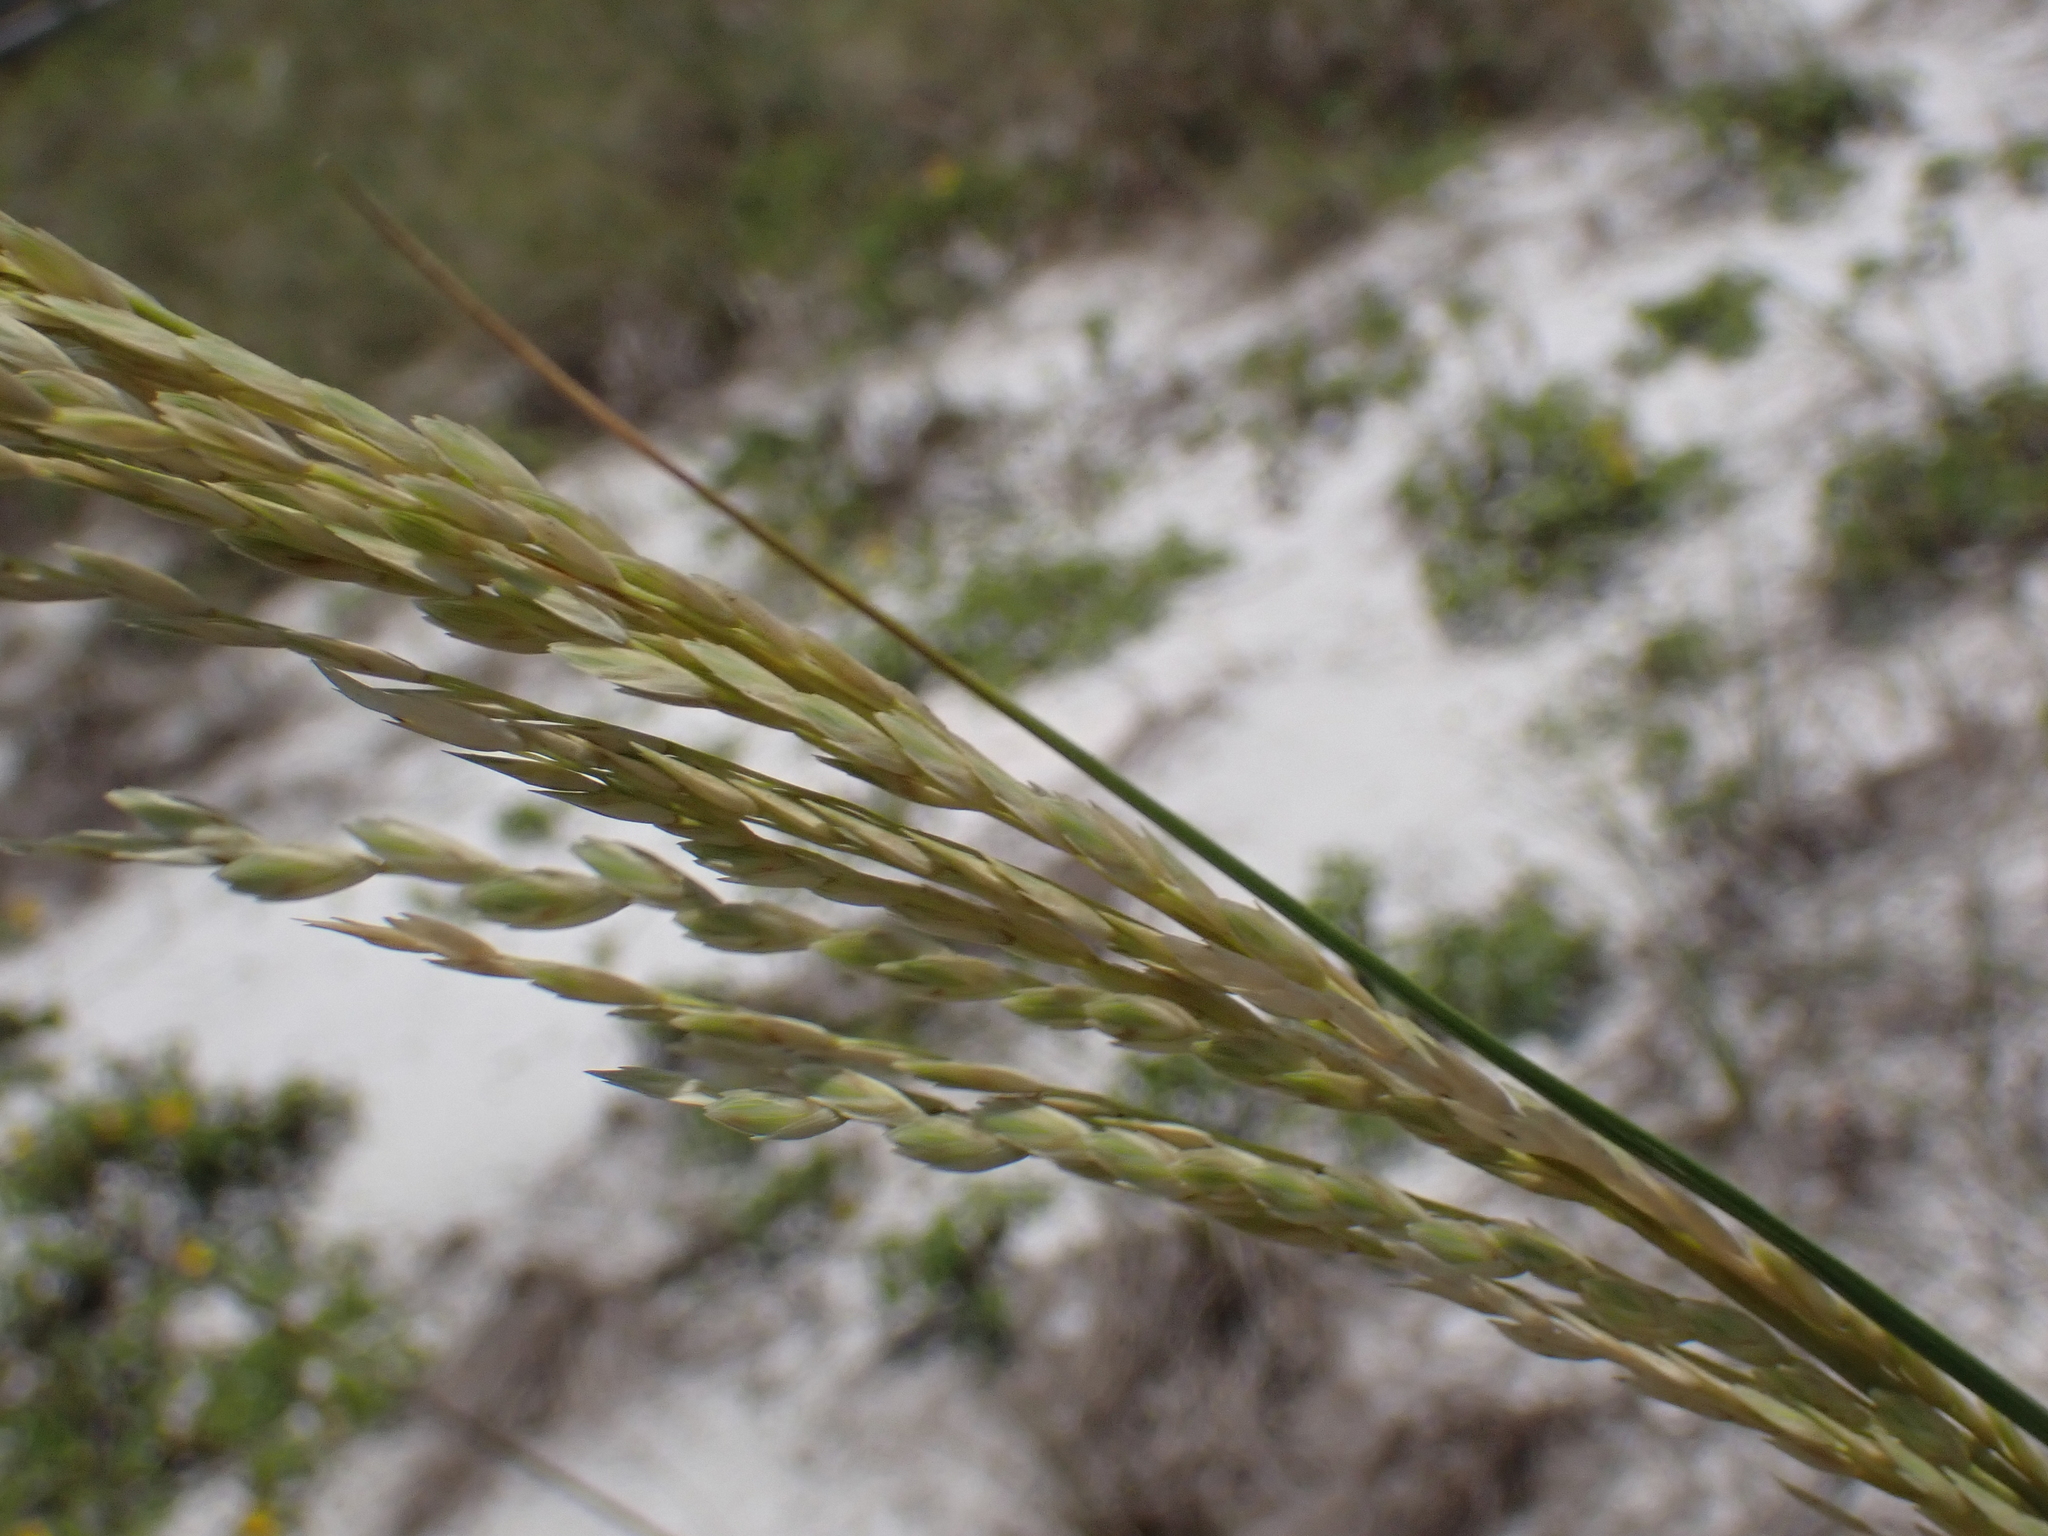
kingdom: Plantae
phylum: Tracheophyta
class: Liliopsida
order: Poales
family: Poaceae
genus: Uniola
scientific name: Uniola paniculata
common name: Seaside-oats
